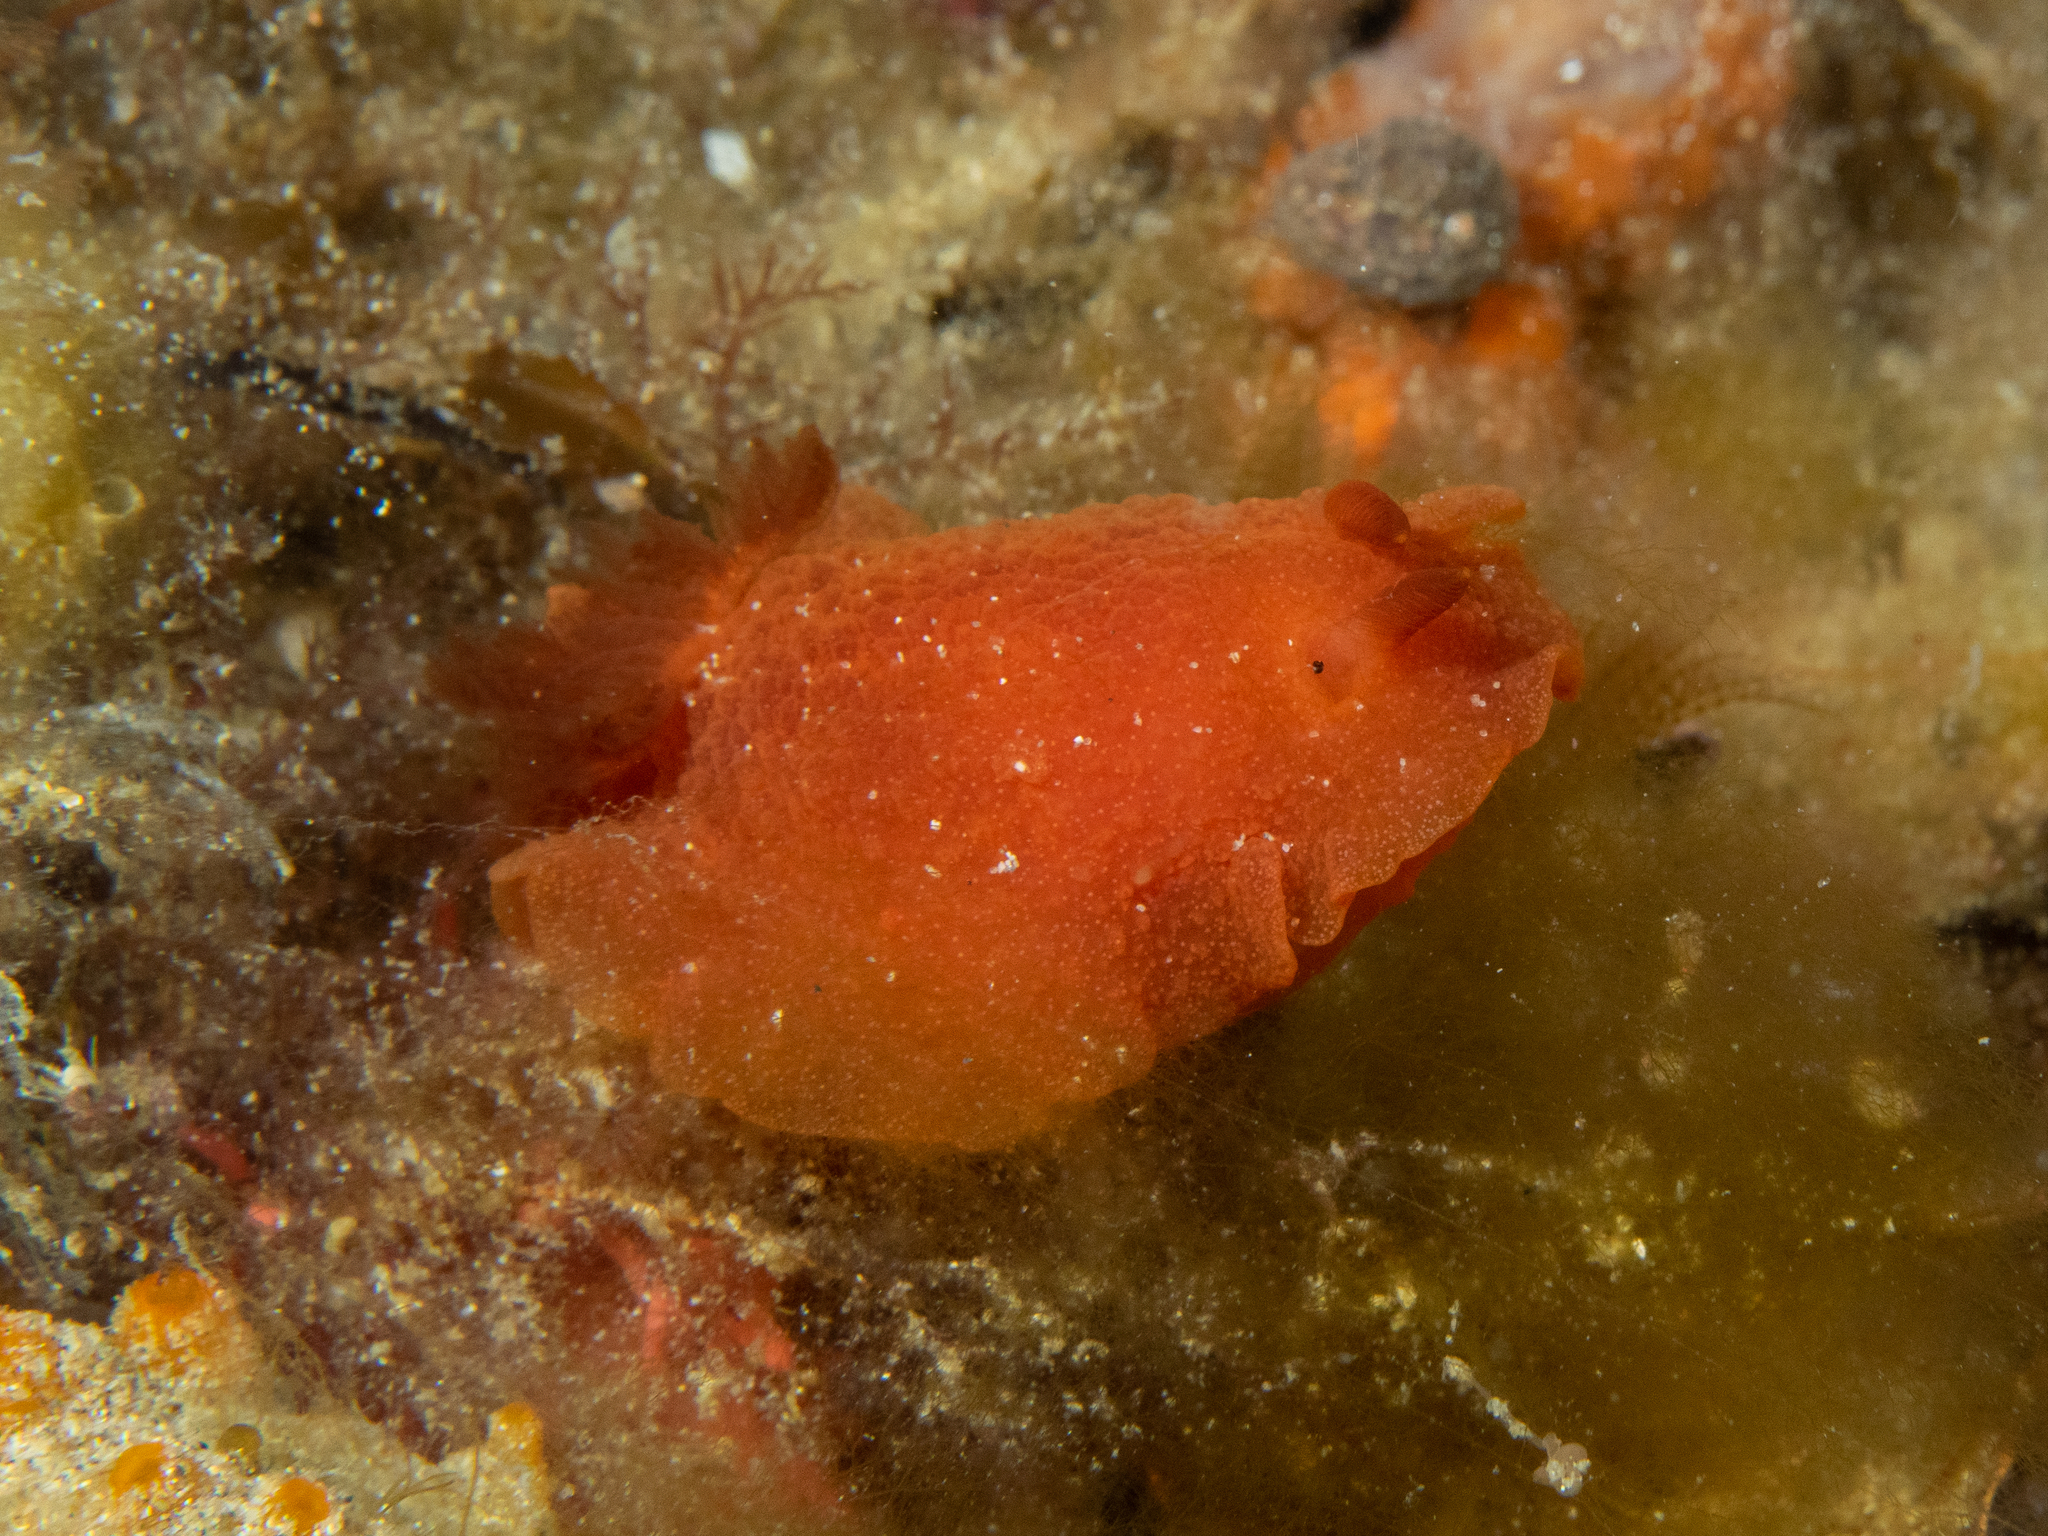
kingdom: Animalia
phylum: Mollusca
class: Gastropoda
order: Nudibranchia
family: Dendrodorididae
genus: Doriopsilla
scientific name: Doriopsilla aurea
